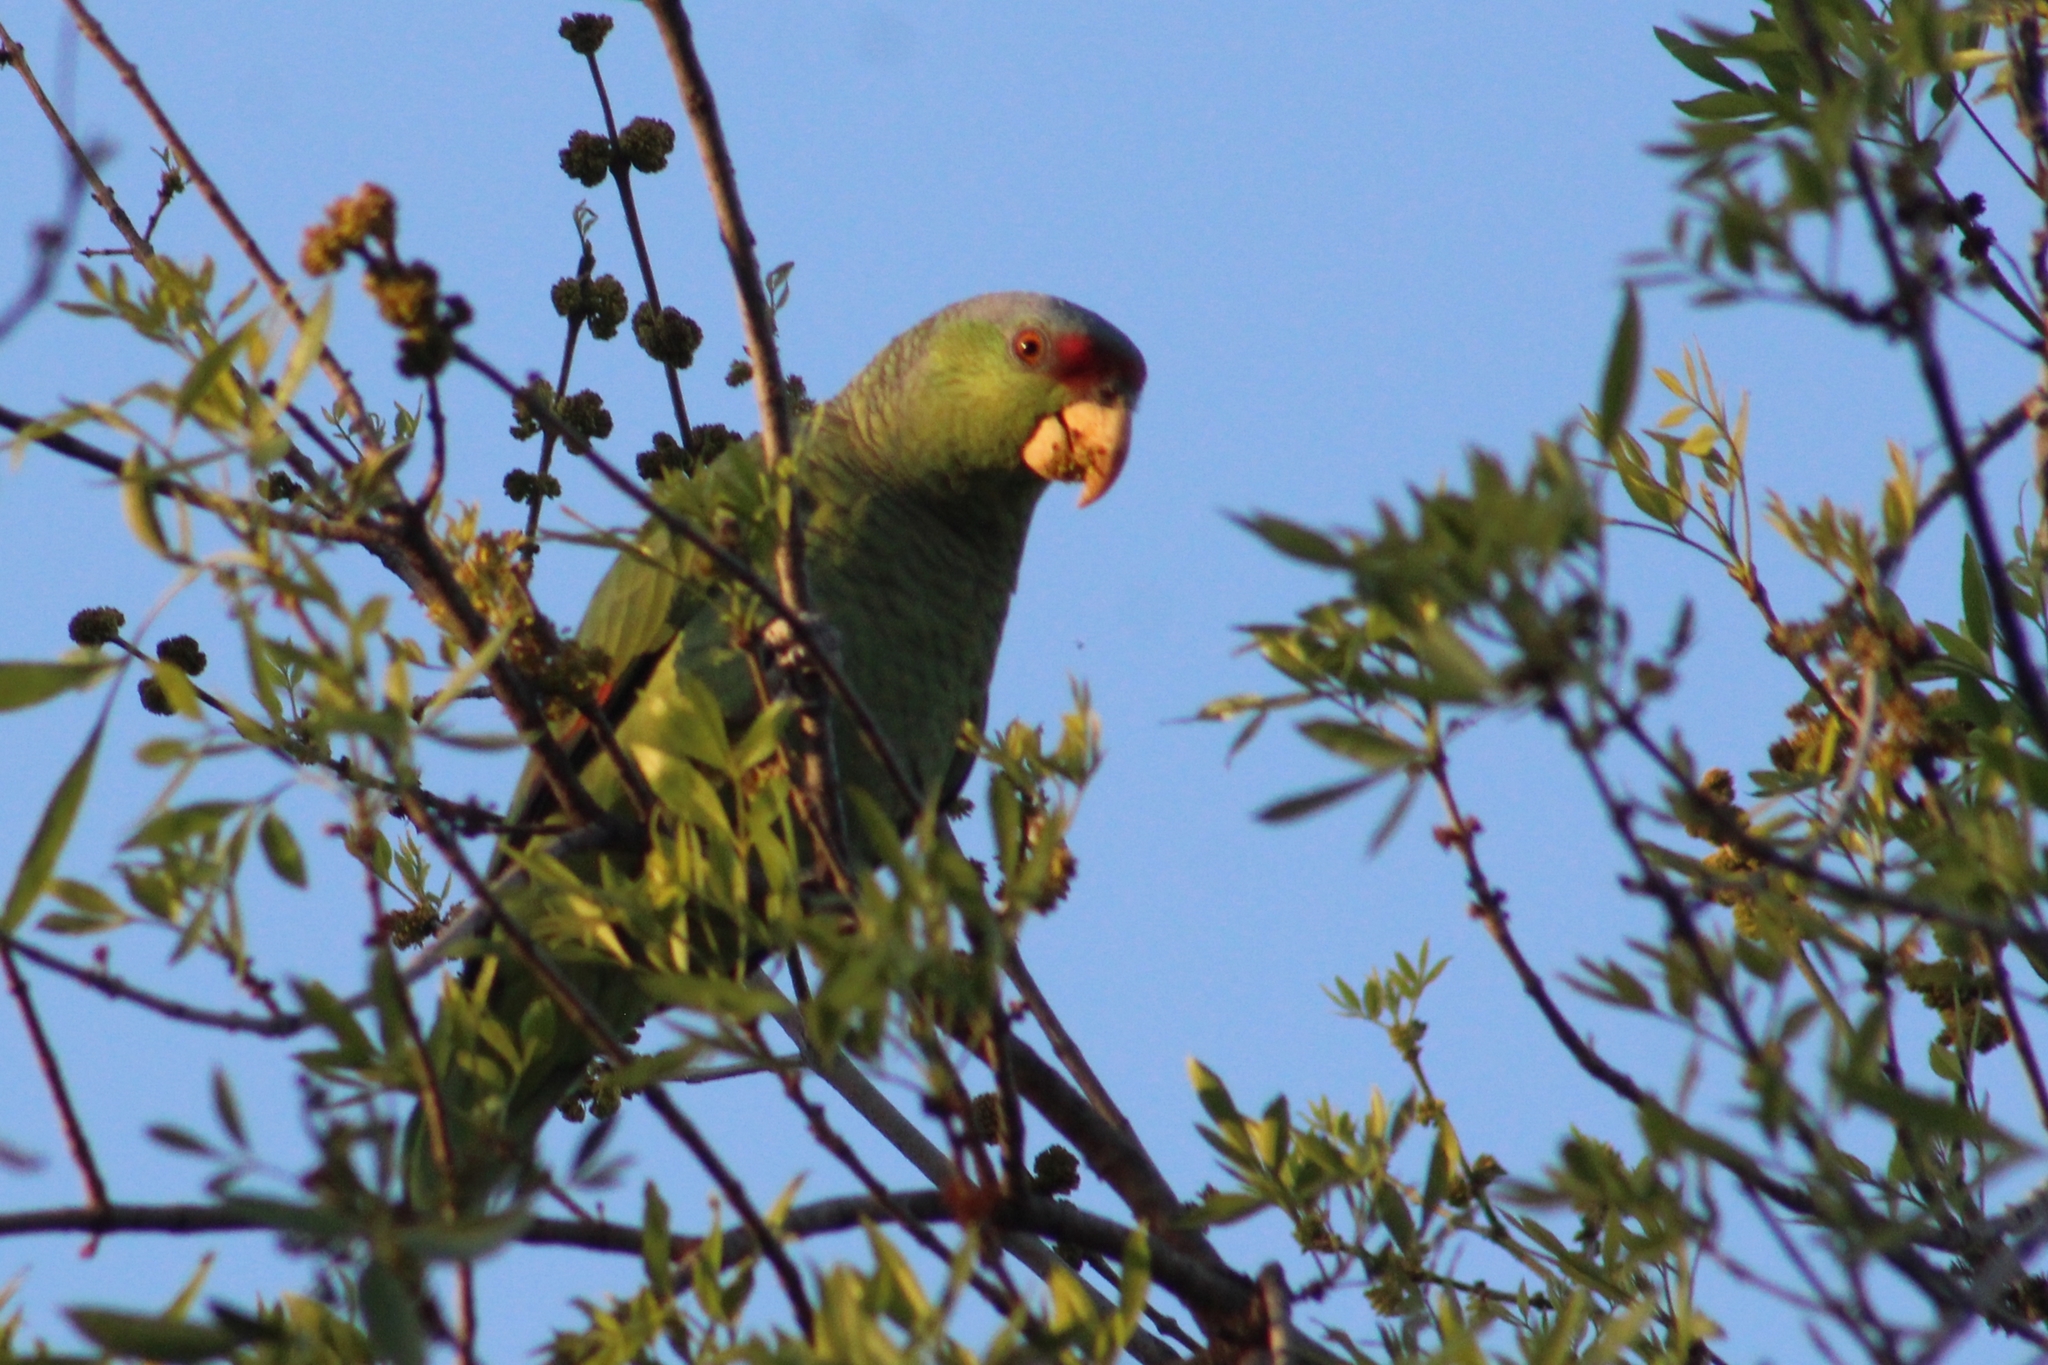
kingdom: Animalia
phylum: Chordata
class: Aves
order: Psittaciformes
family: Psittacidae
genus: Amazona
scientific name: Amazona finschi
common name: Lilac-crowned amazon
